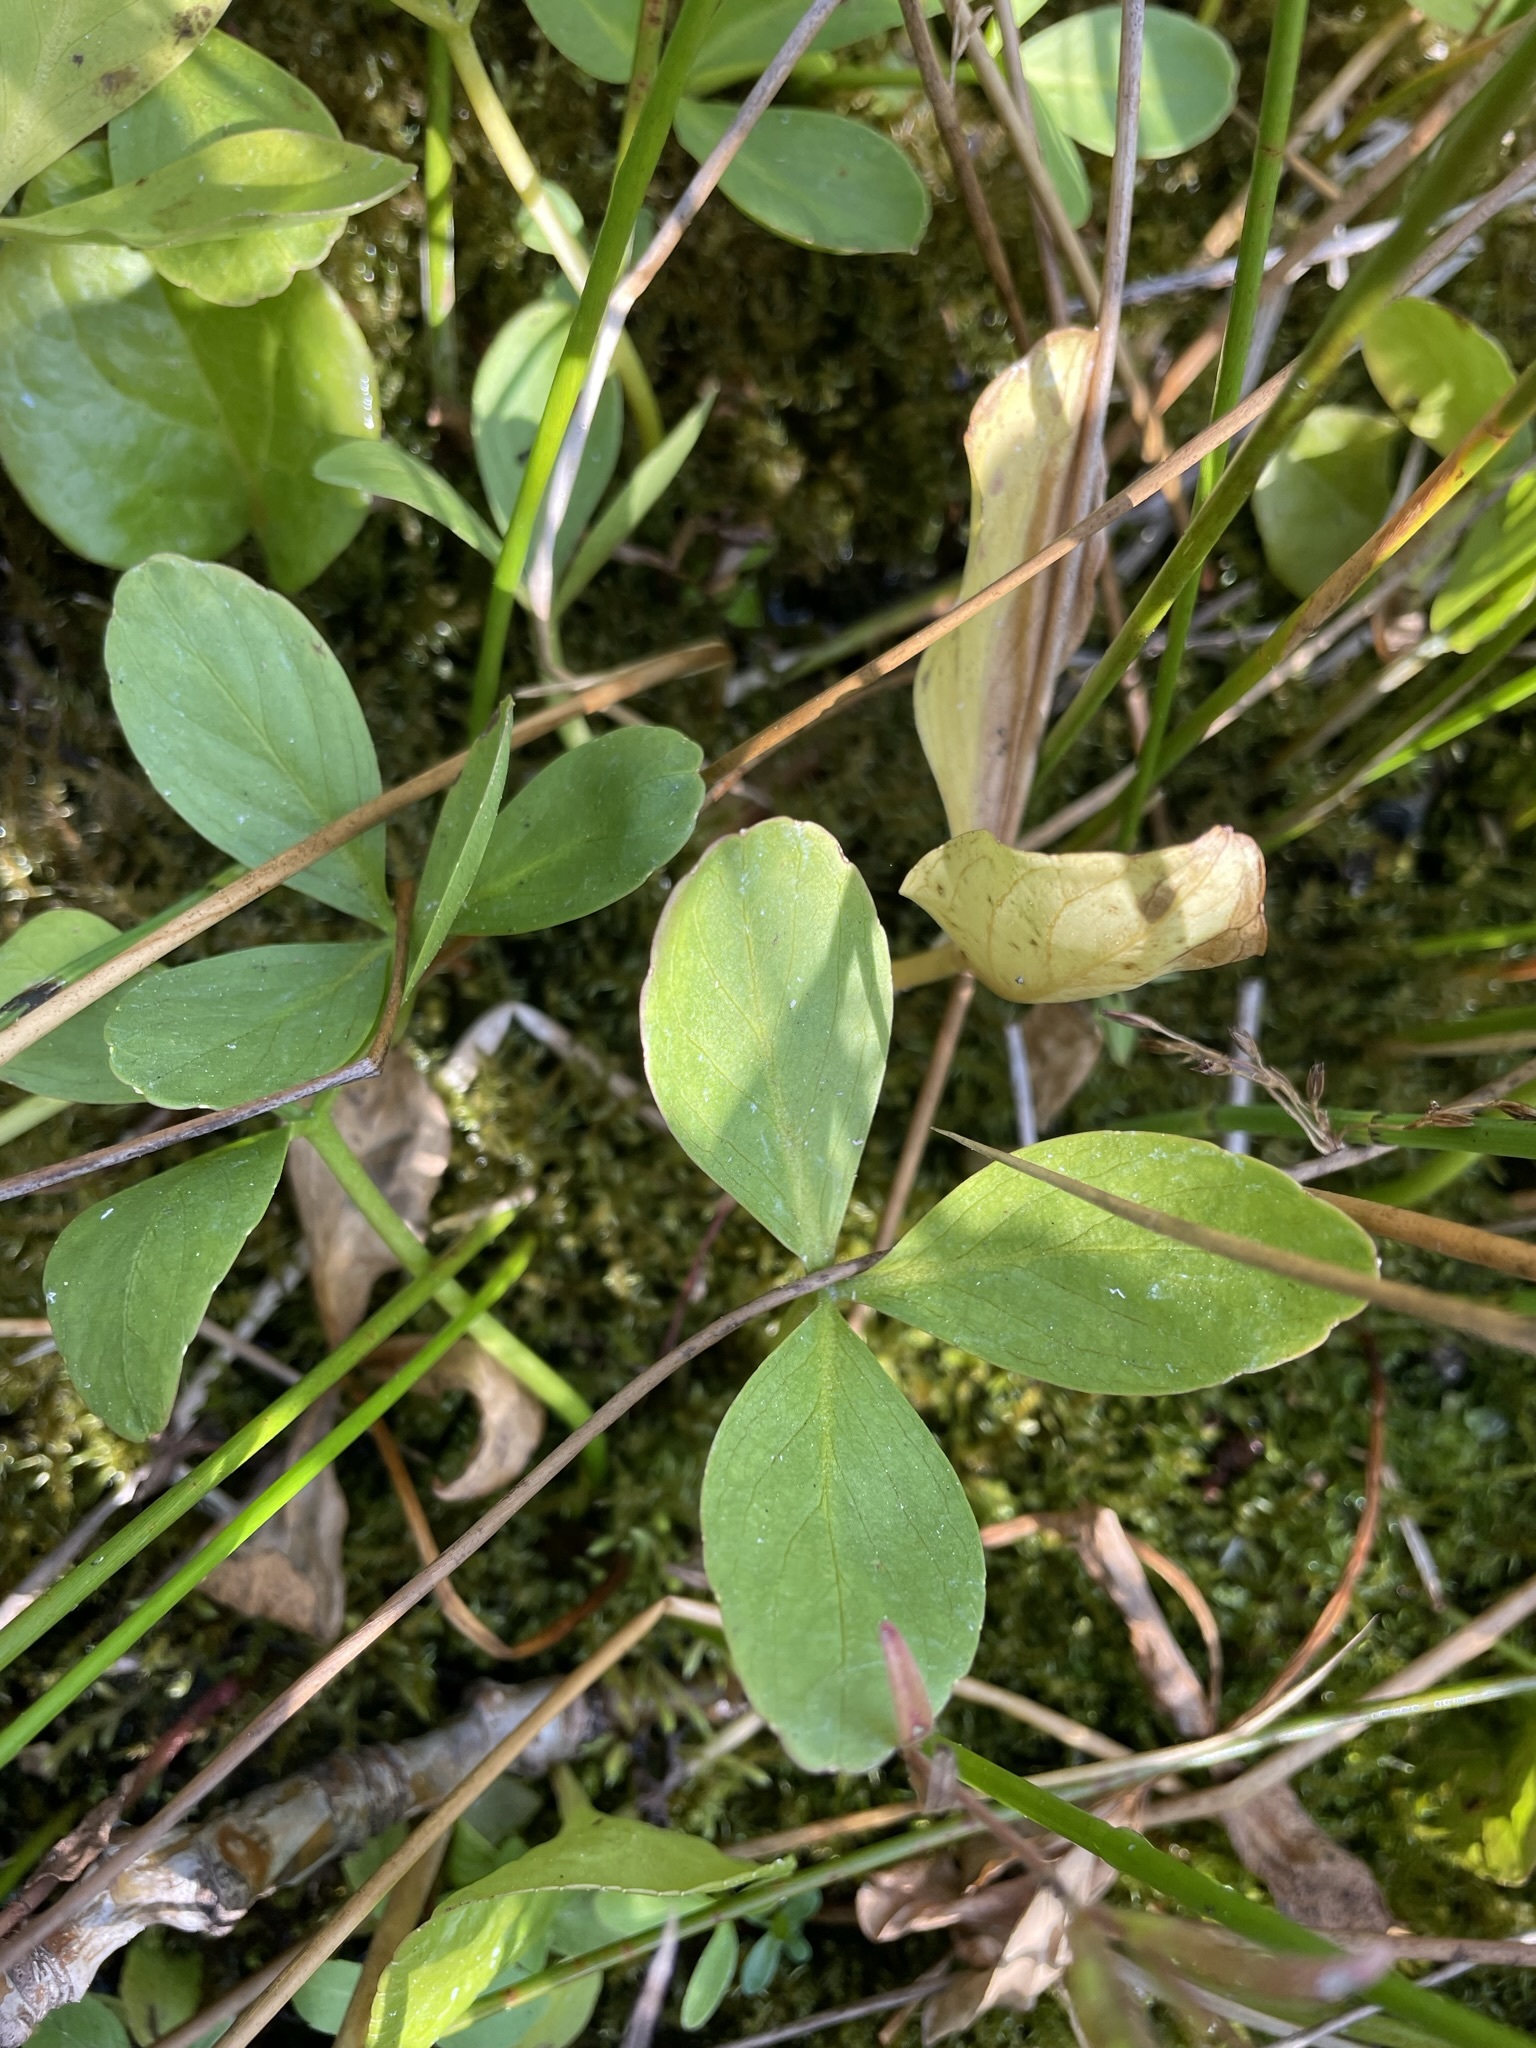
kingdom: Plantae
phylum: Tracheophyta
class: Magnoliopsida
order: Asterales
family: Menyanthaceae
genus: Menyanthes
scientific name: Menyanthes trifoliata
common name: Bogbean
